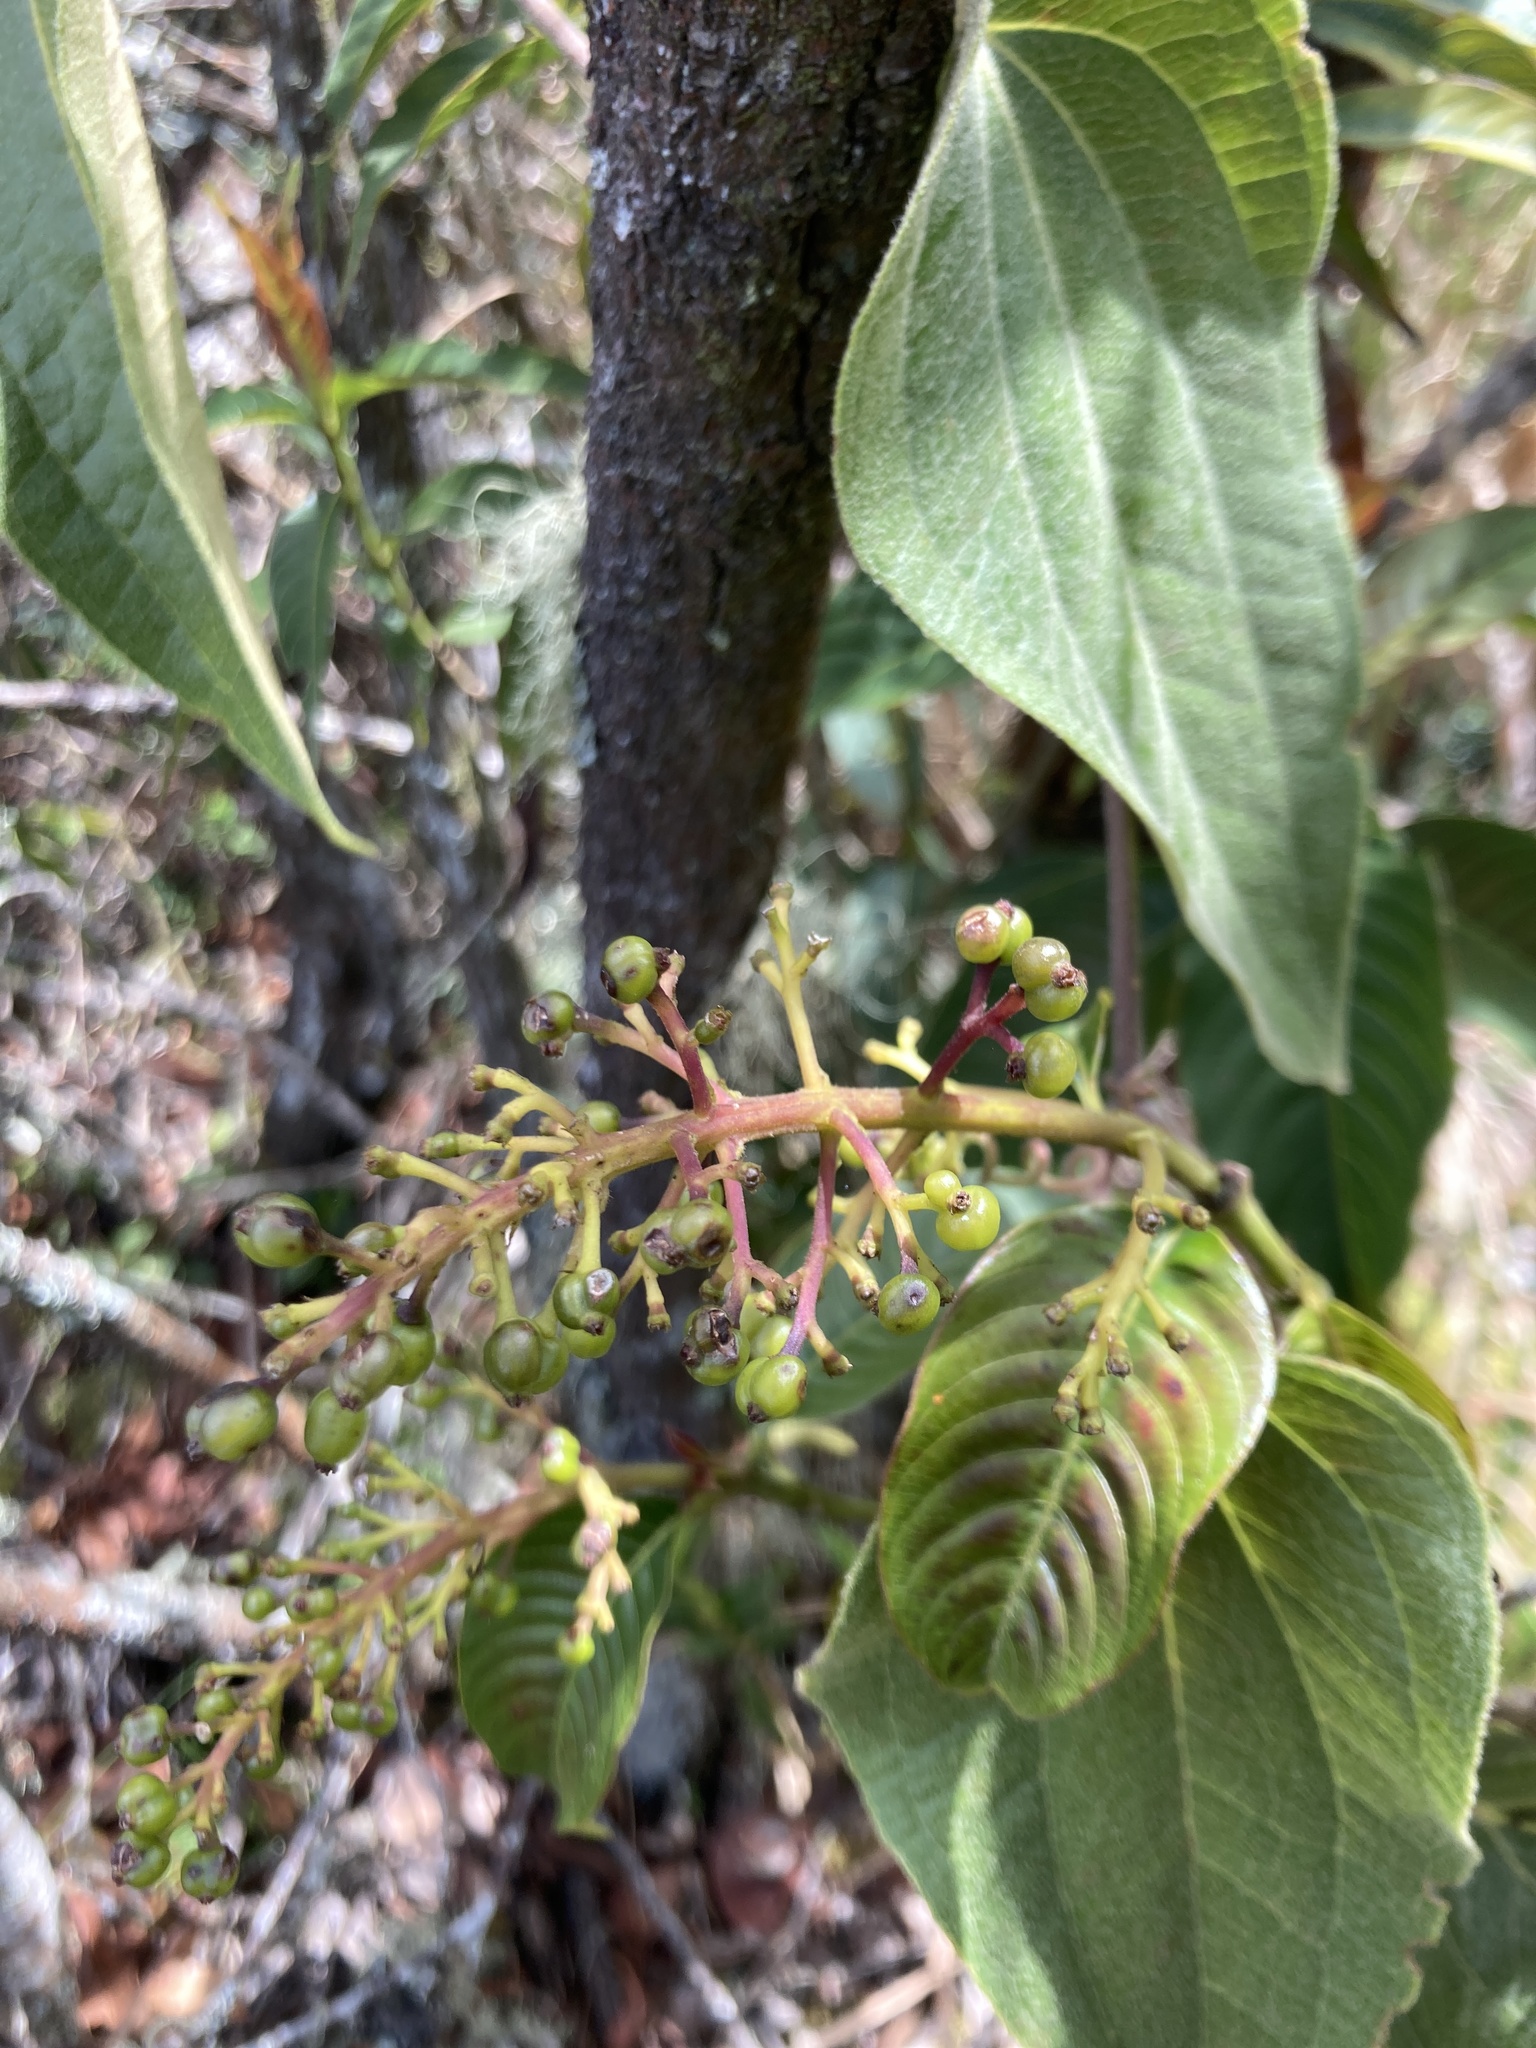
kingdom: Plantae
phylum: Tracheophyta
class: Magnoliopsida
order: Gentianales
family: Rubiaceae
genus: Palicourea
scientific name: Palicourea angustifolia
